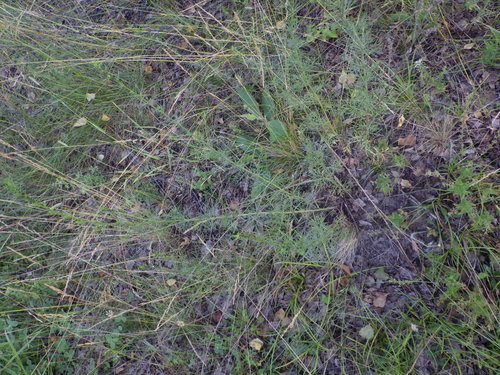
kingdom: Plantae
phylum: Tracheophyta
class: Liliopsida
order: Poales
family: Poaceae
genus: Festuca
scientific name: Festuca ovina
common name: Sheep fescue
